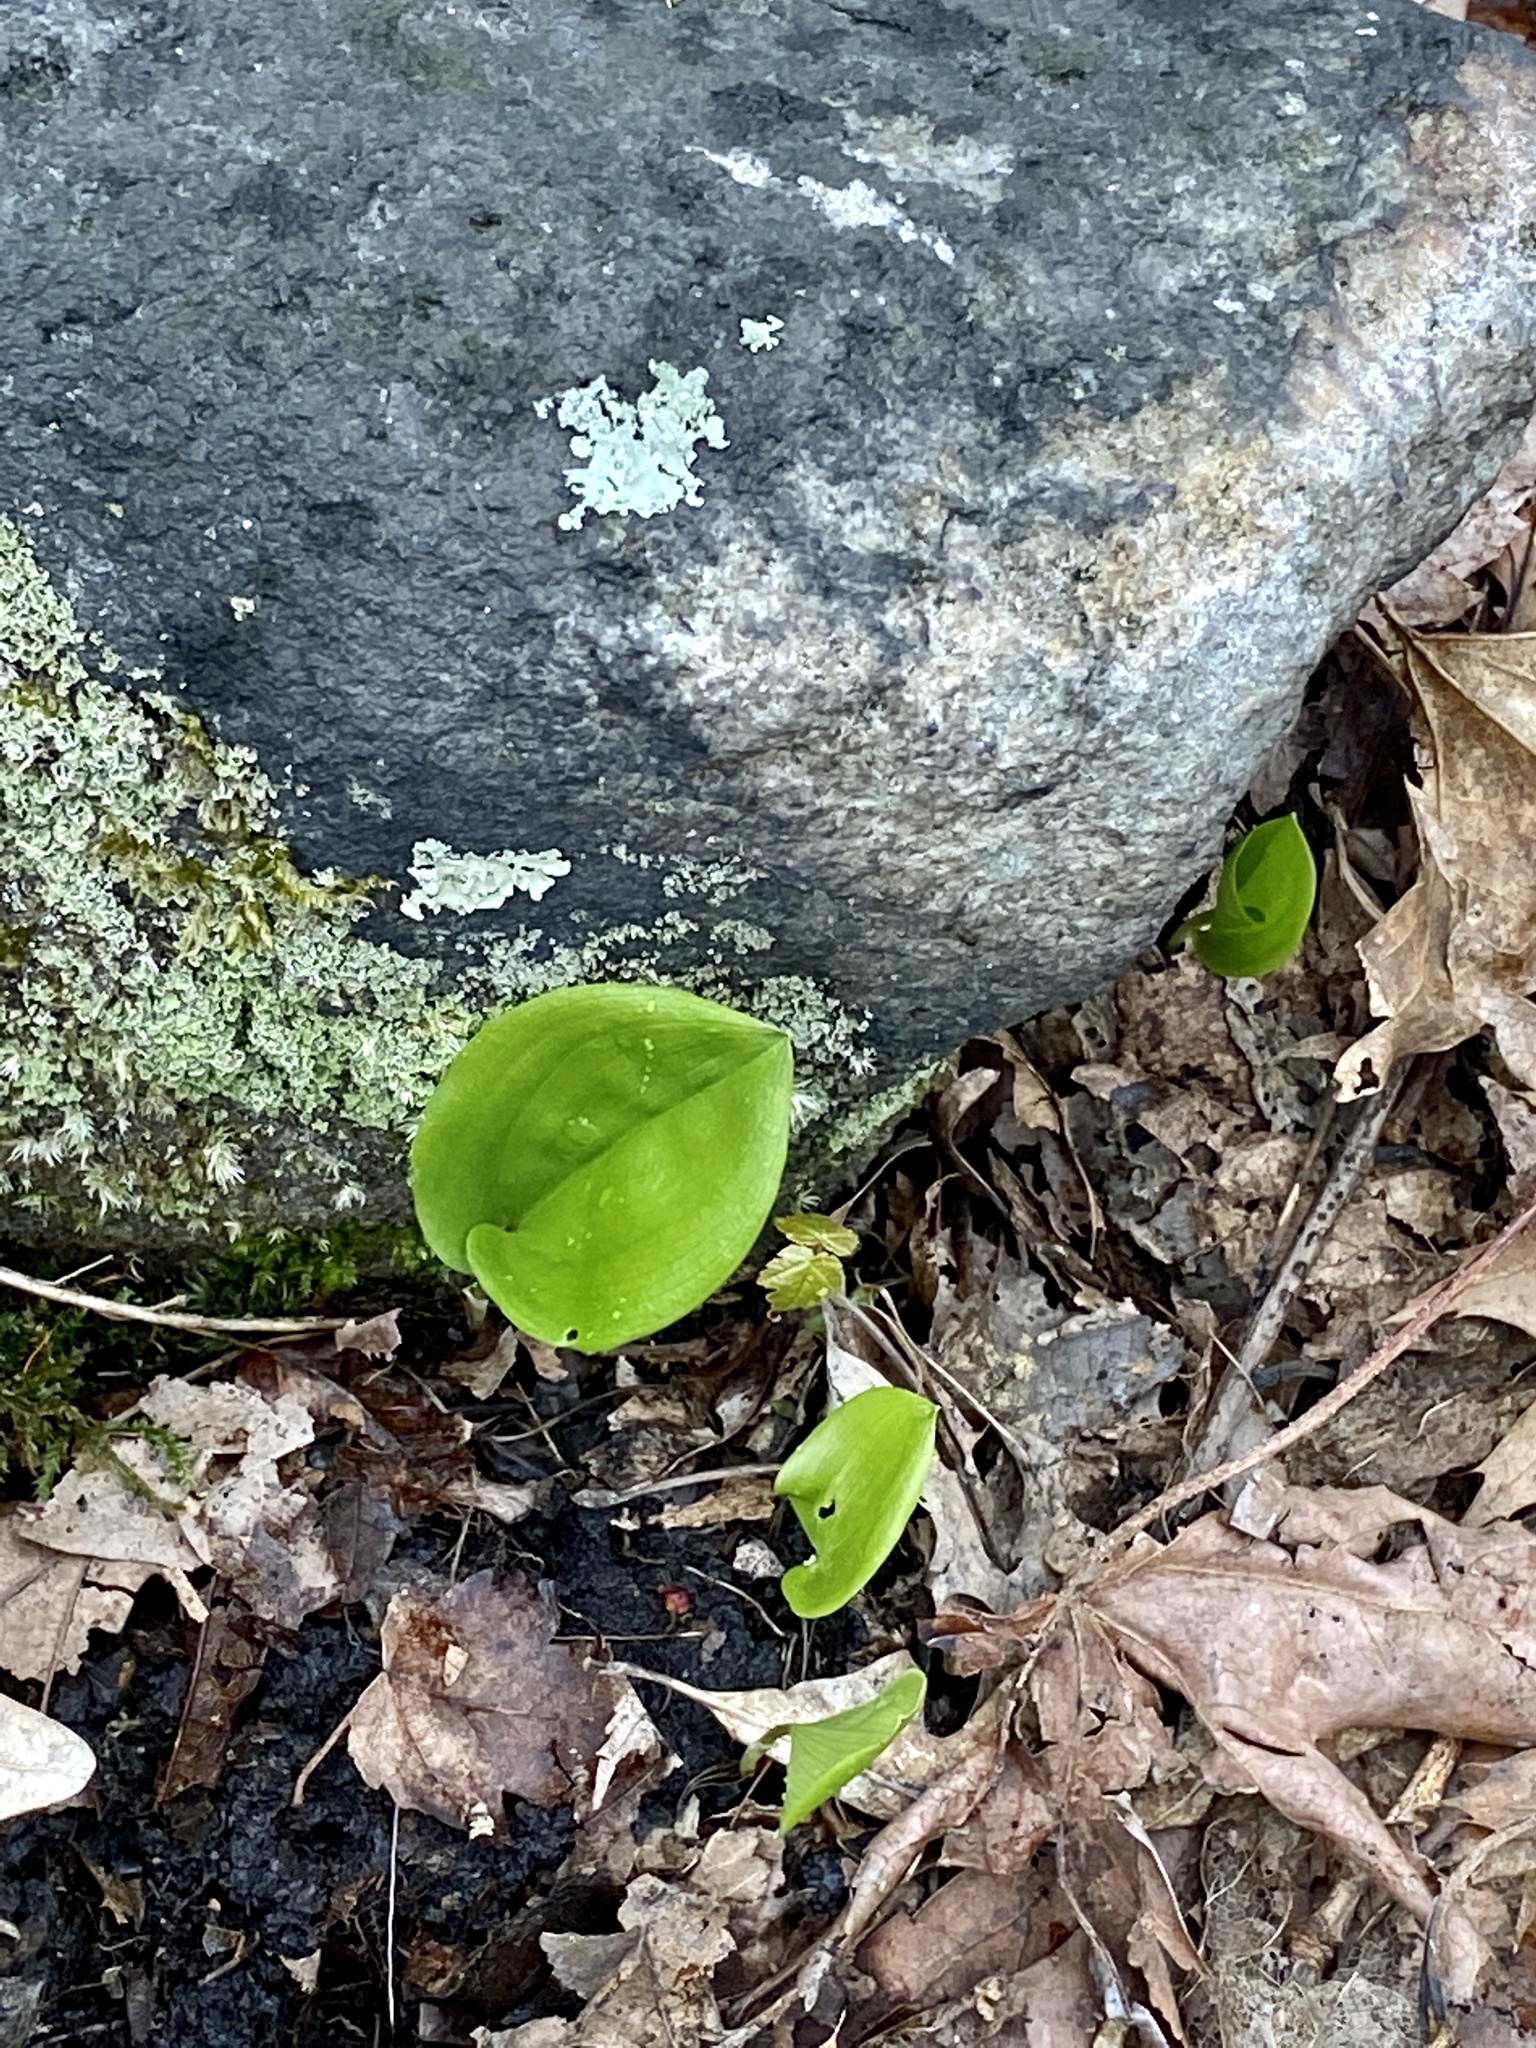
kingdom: Plantae
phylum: Tracheophyta
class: Liliopsida
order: Asparagales
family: Asparagaceae
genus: Maianthemum
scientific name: Maianthemum canadense
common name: False lily-of-the-valley
